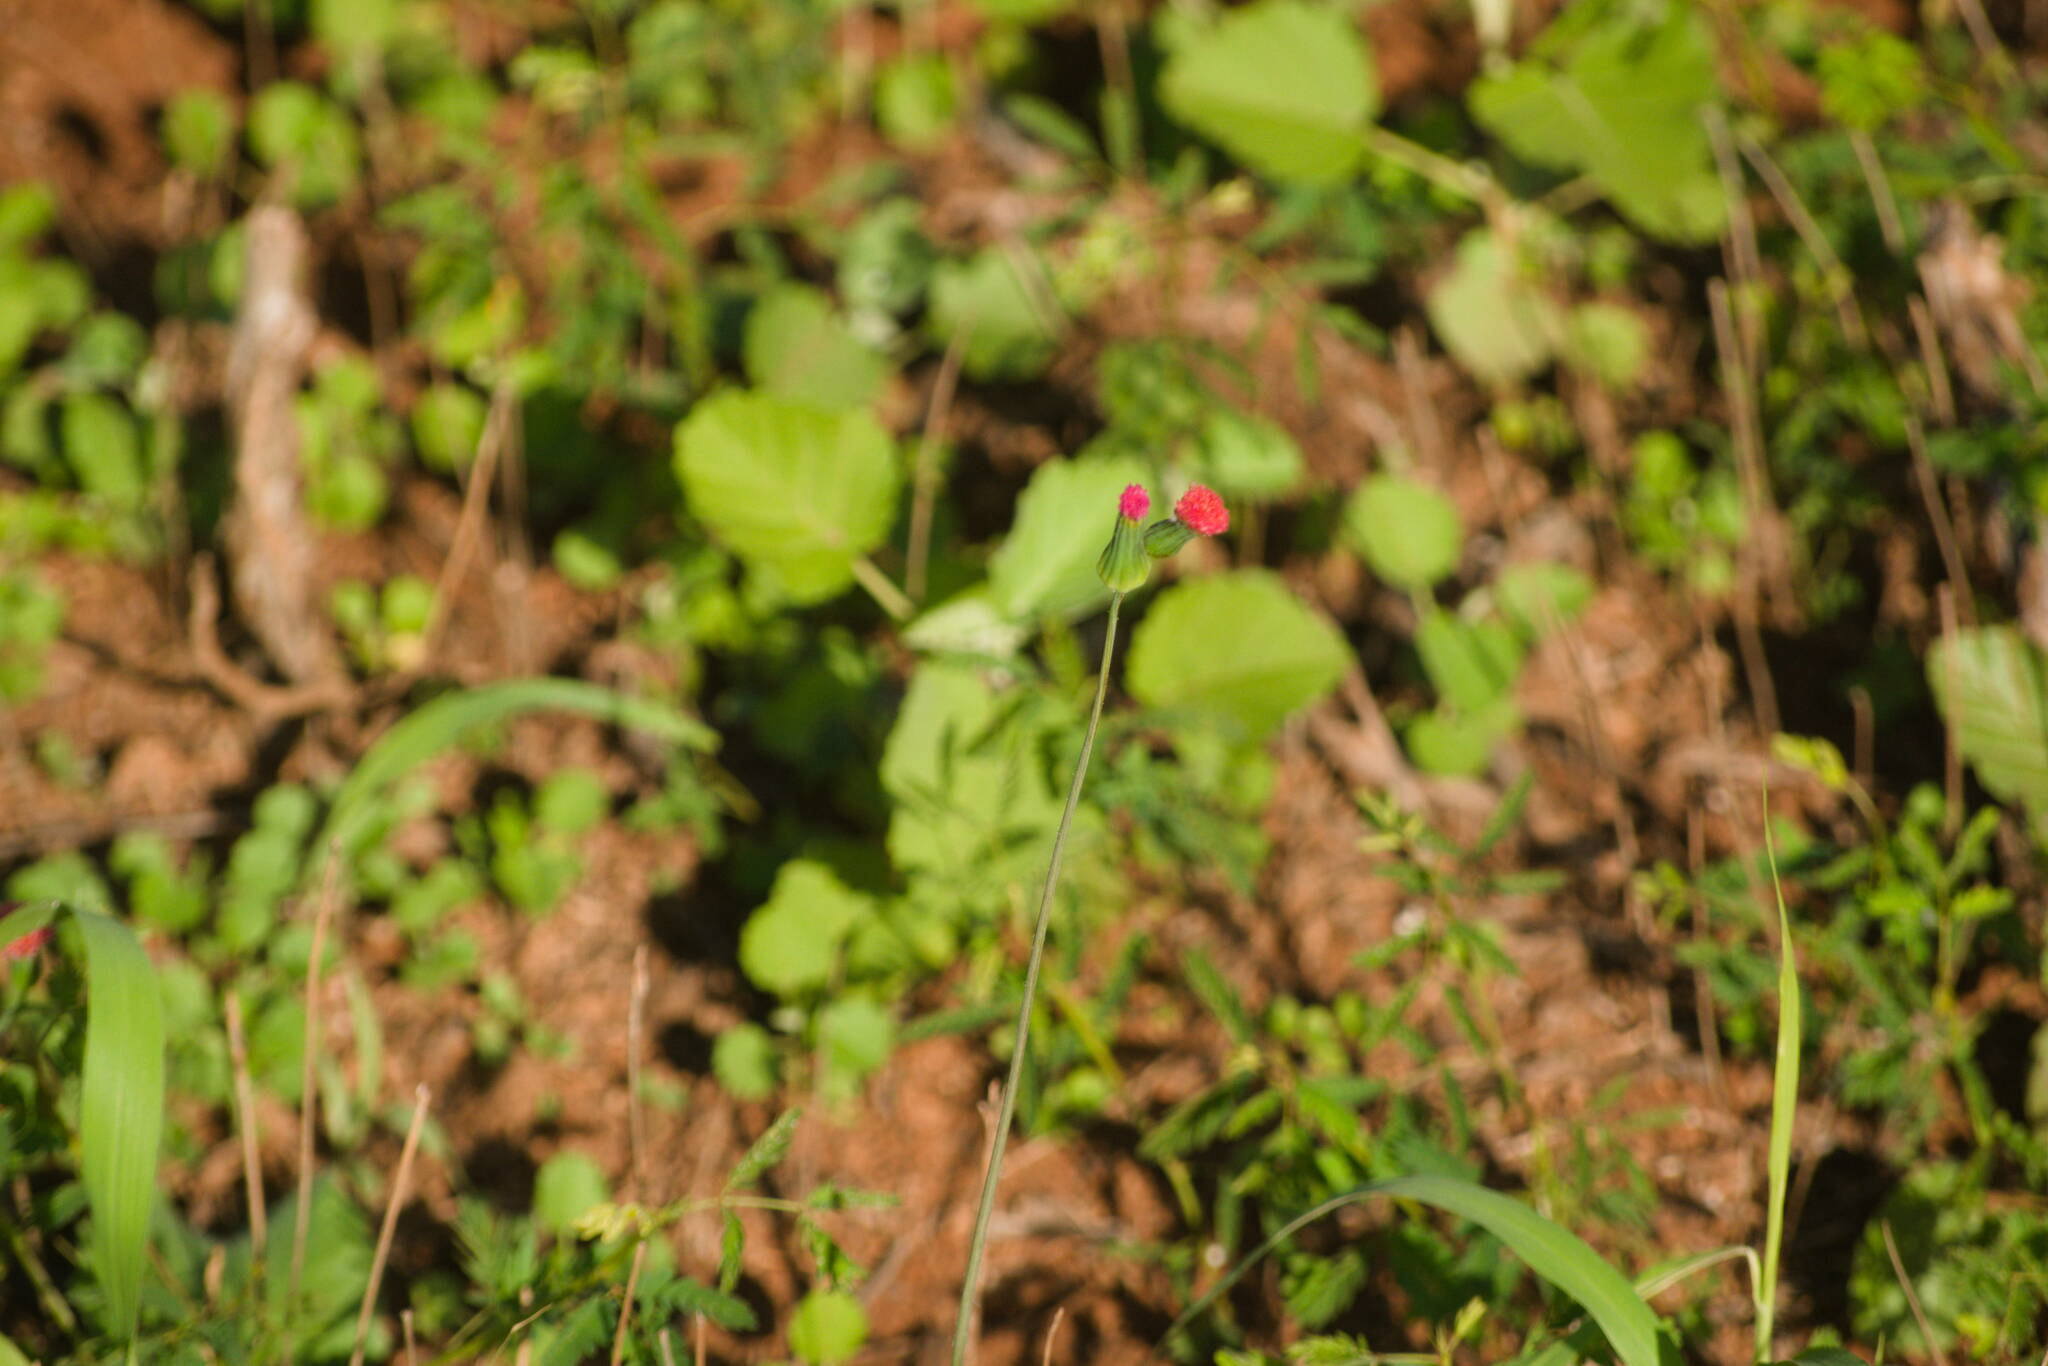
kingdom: Plantae
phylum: Tracheophyta
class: Magnoliopsida
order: Asterales
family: Asteraceae
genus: Emilia
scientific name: Emilia fosbergii
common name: Florida tasselflower
